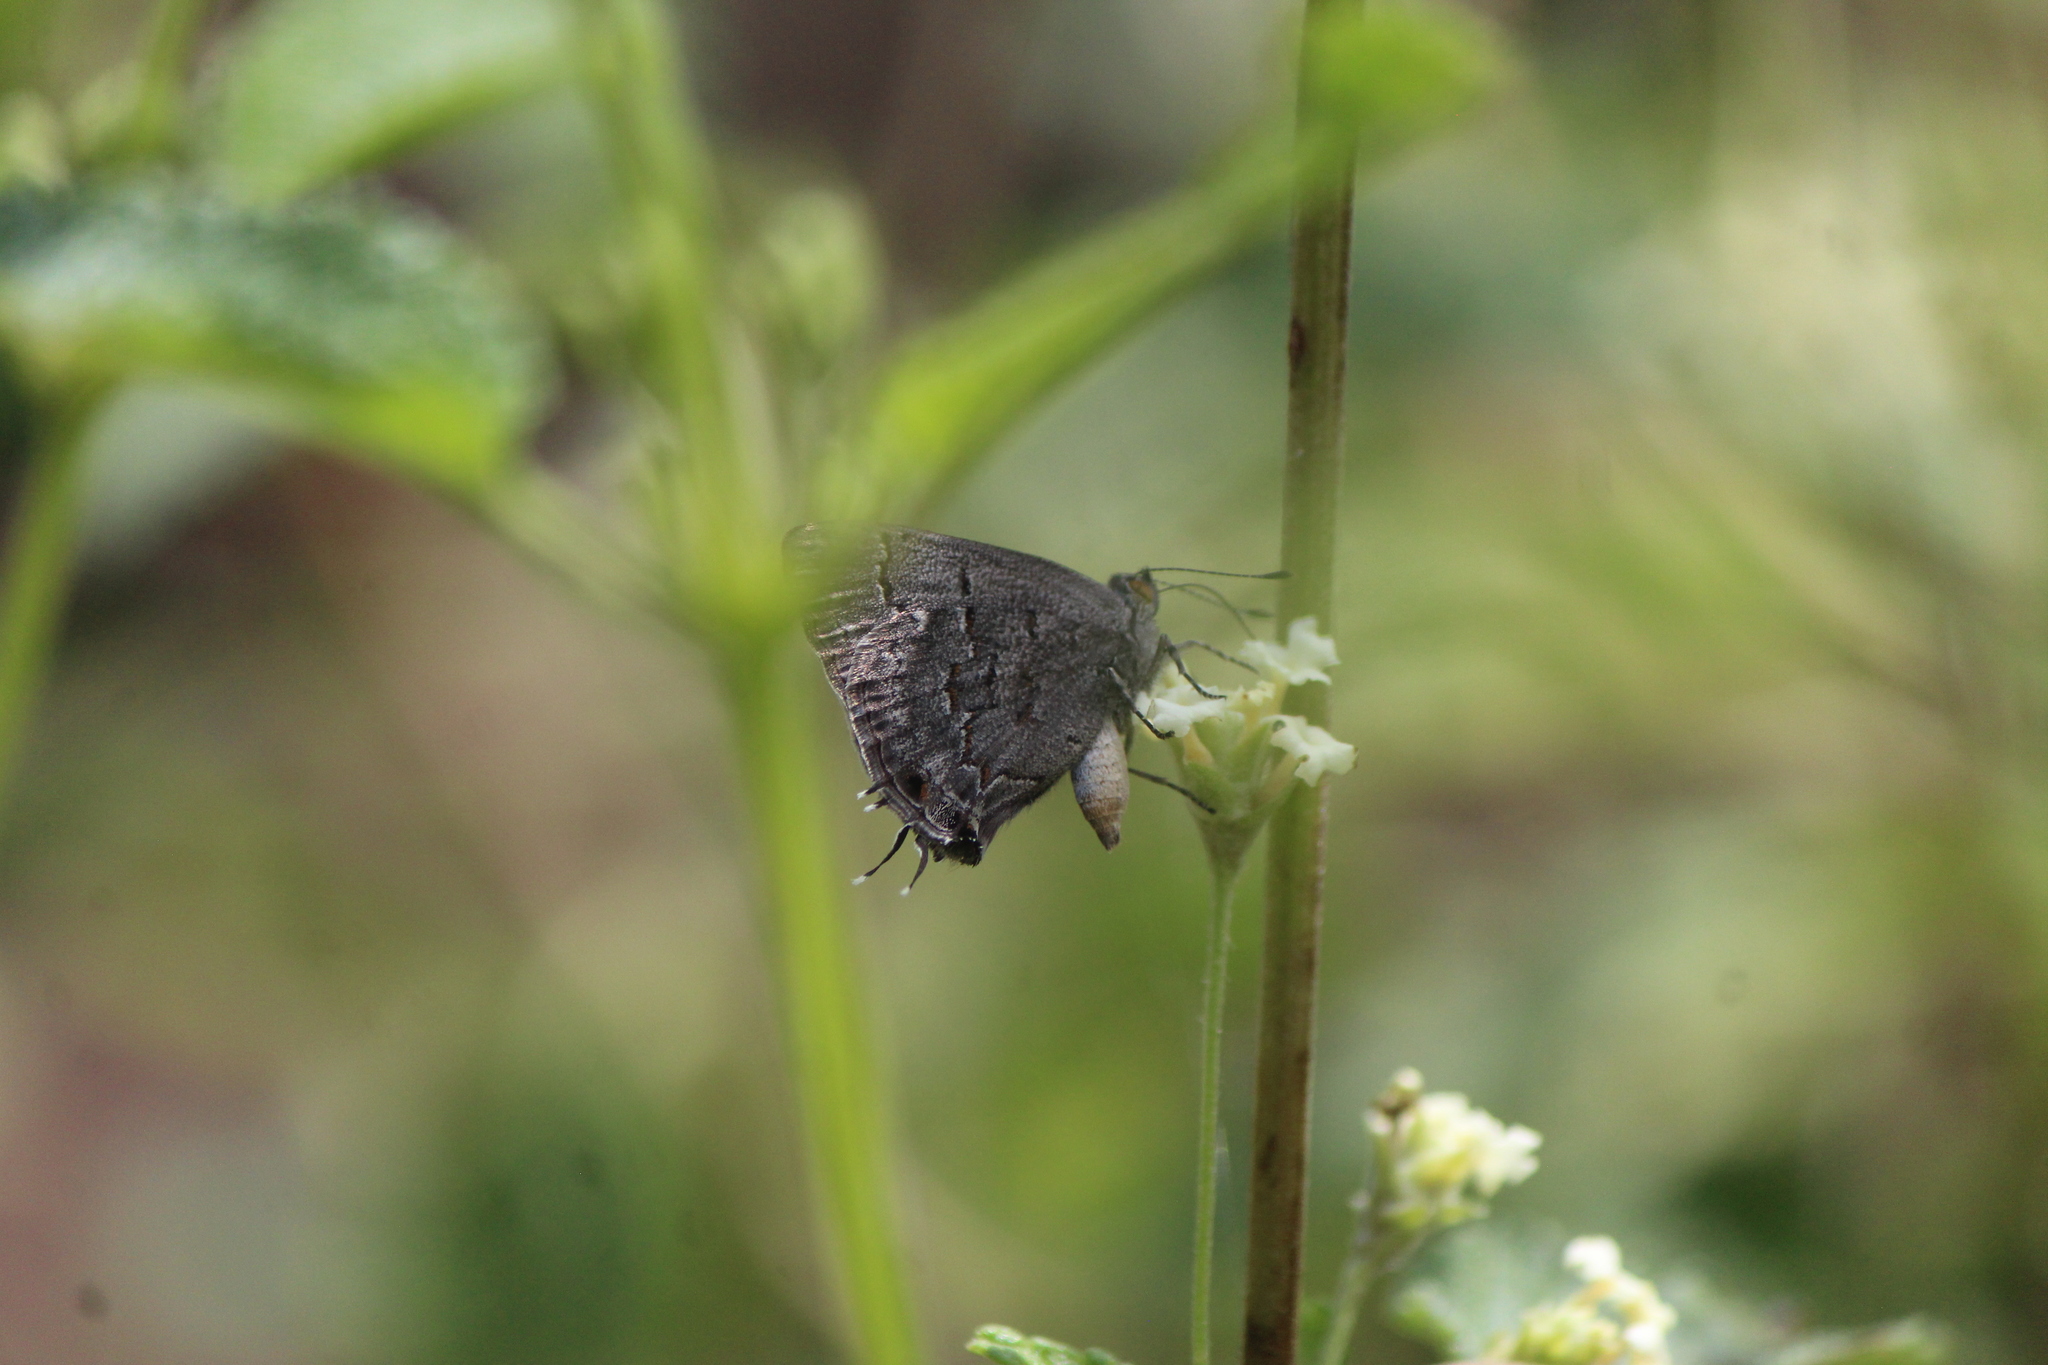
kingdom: Animalia
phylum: Arthropoda
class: Insecta
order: Lepidoptera
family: Lycaenidae
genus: Ministrymon
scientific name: Ministrymon leda
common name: Leda ministreak
